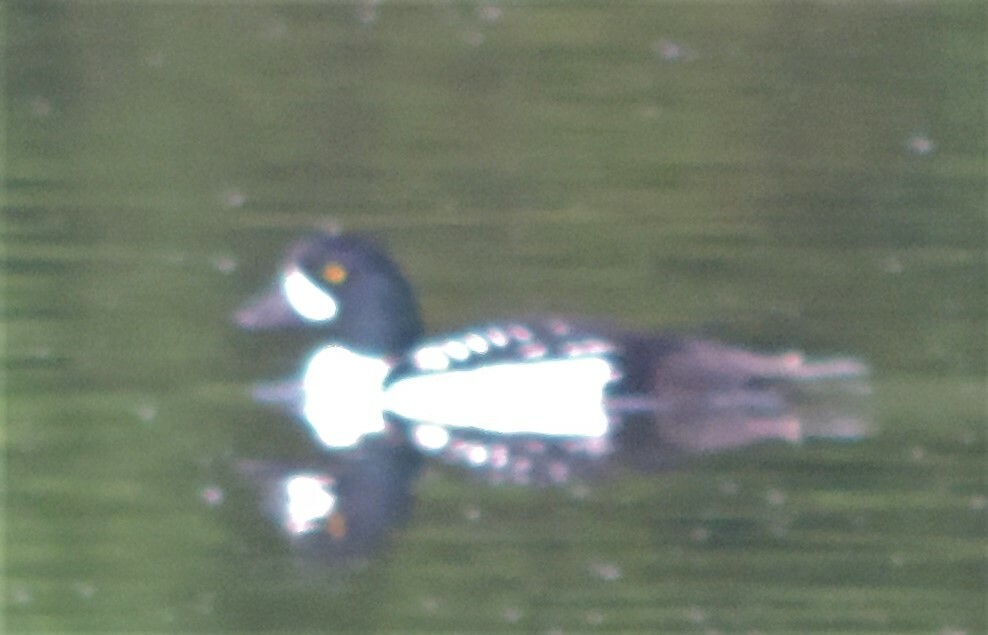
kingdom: Animalia
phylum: Chordata
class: Aves
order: Anseriformes
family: Anatidae
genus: Bucephala
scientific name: Bucephala islandica
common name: Barrow's goldeneye
